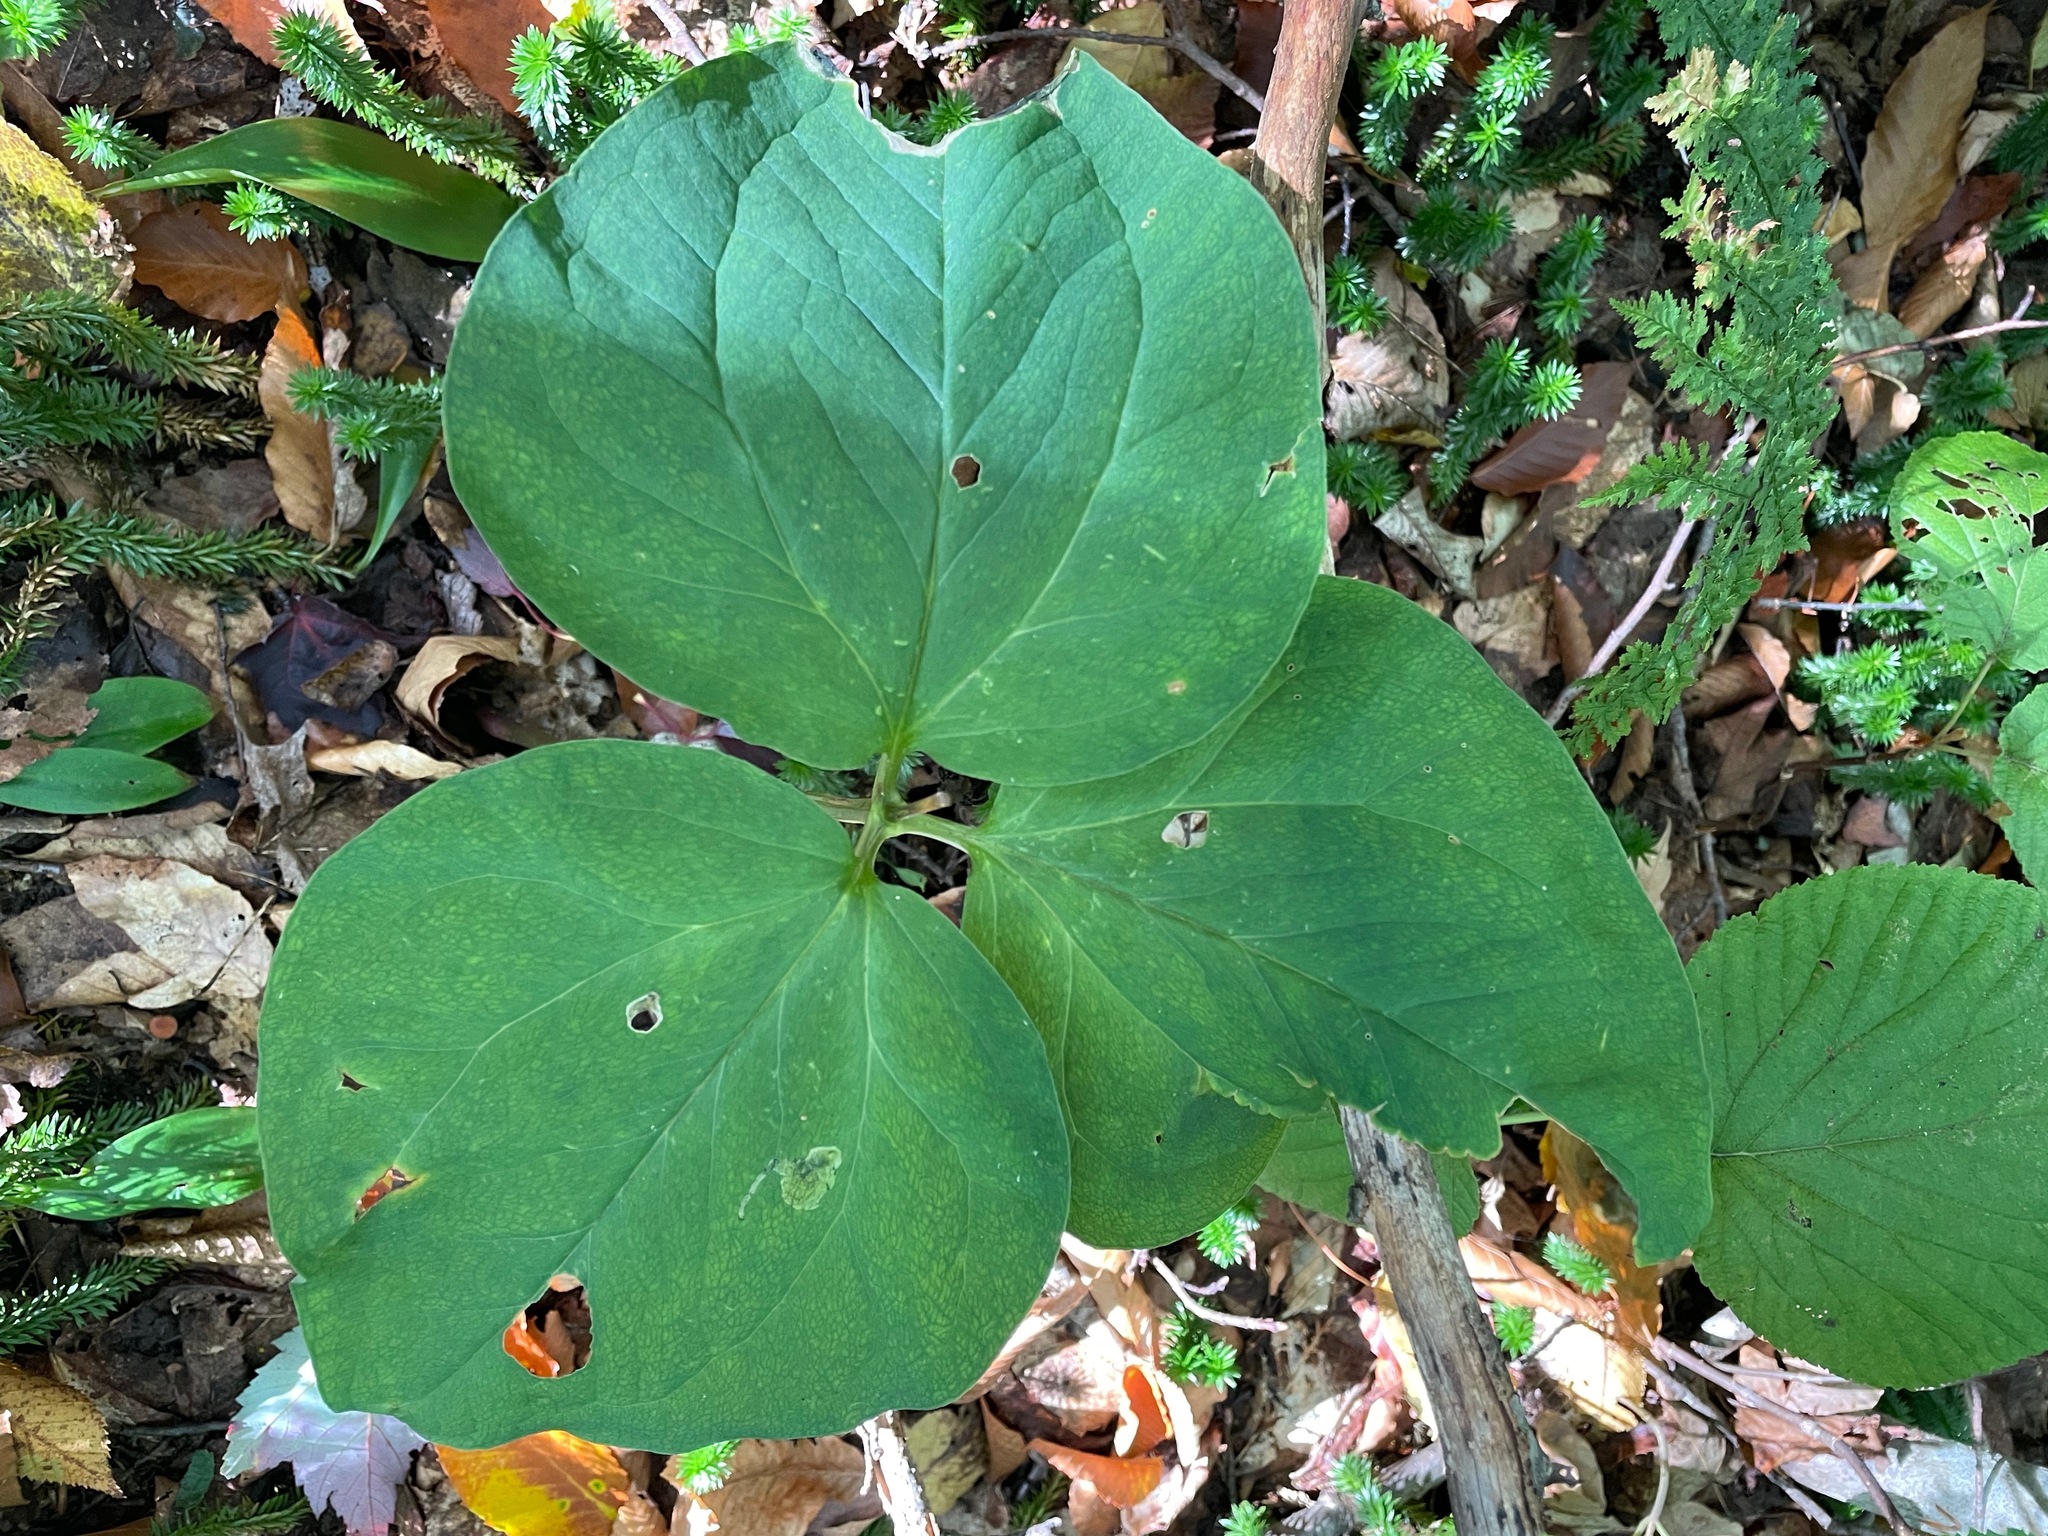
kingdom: Plantae
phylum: Tracheophyta
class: Liliopsida
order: Liliales
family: Melanthiaceae
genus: Trillium
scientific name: Trillium undulatum
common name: Paint trillium
